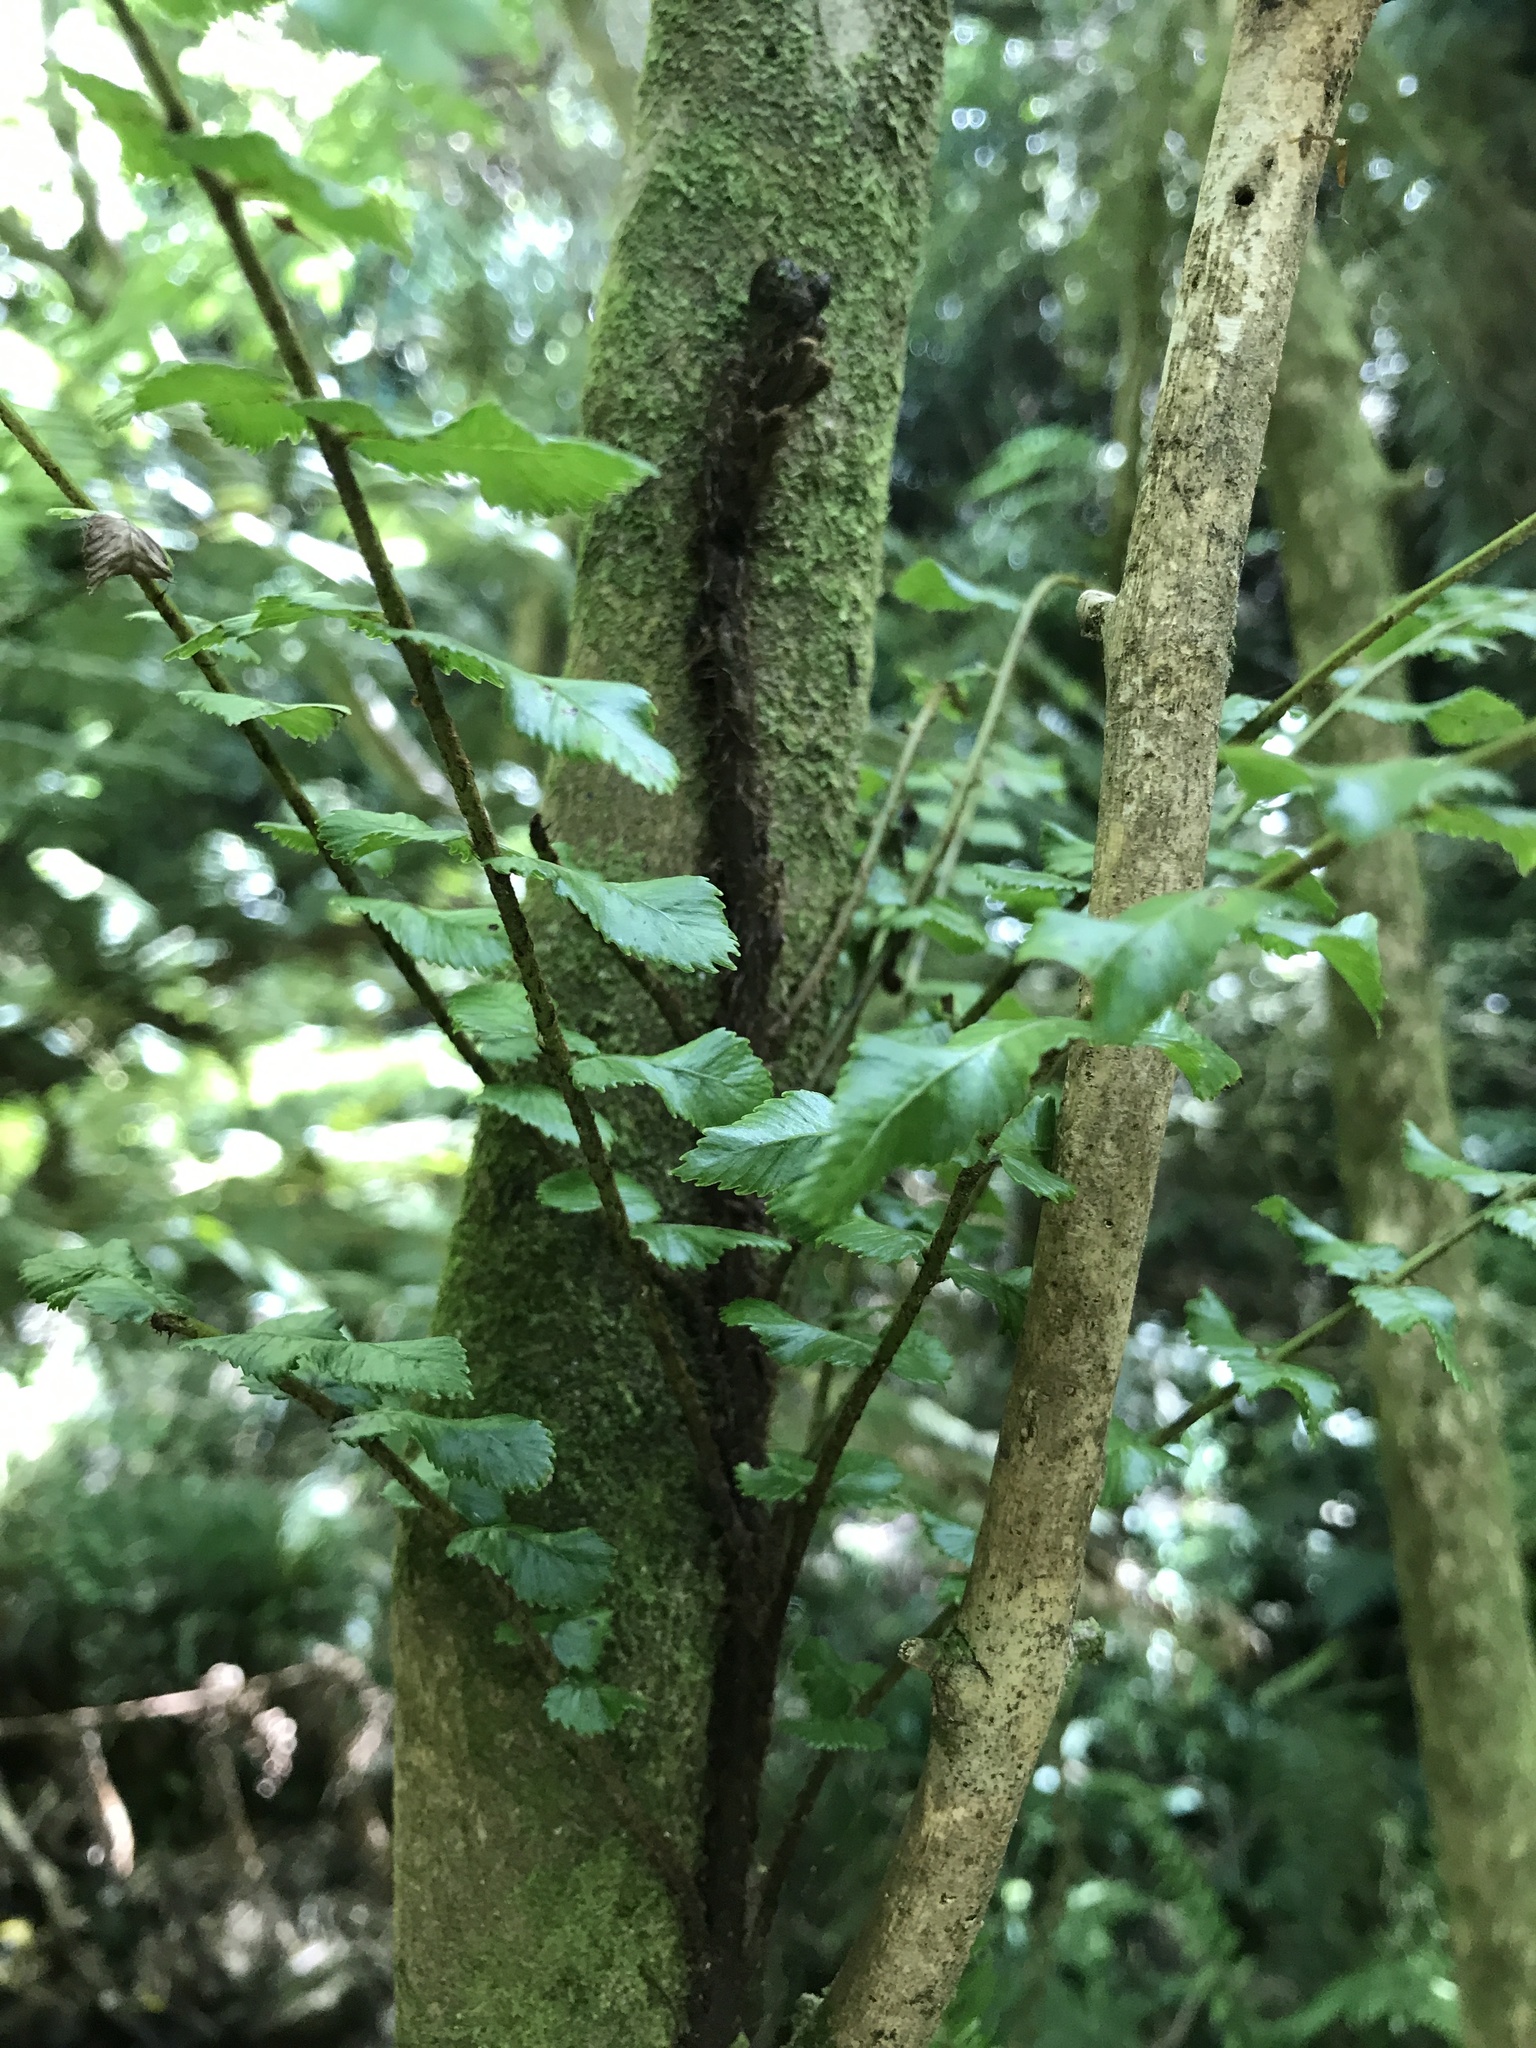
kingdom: Plantae
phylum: Tracheophyta
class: Polypodiopsida
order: Polypodiales
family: Blechnaceae
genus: Icarus
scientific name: Icarus filiformis
